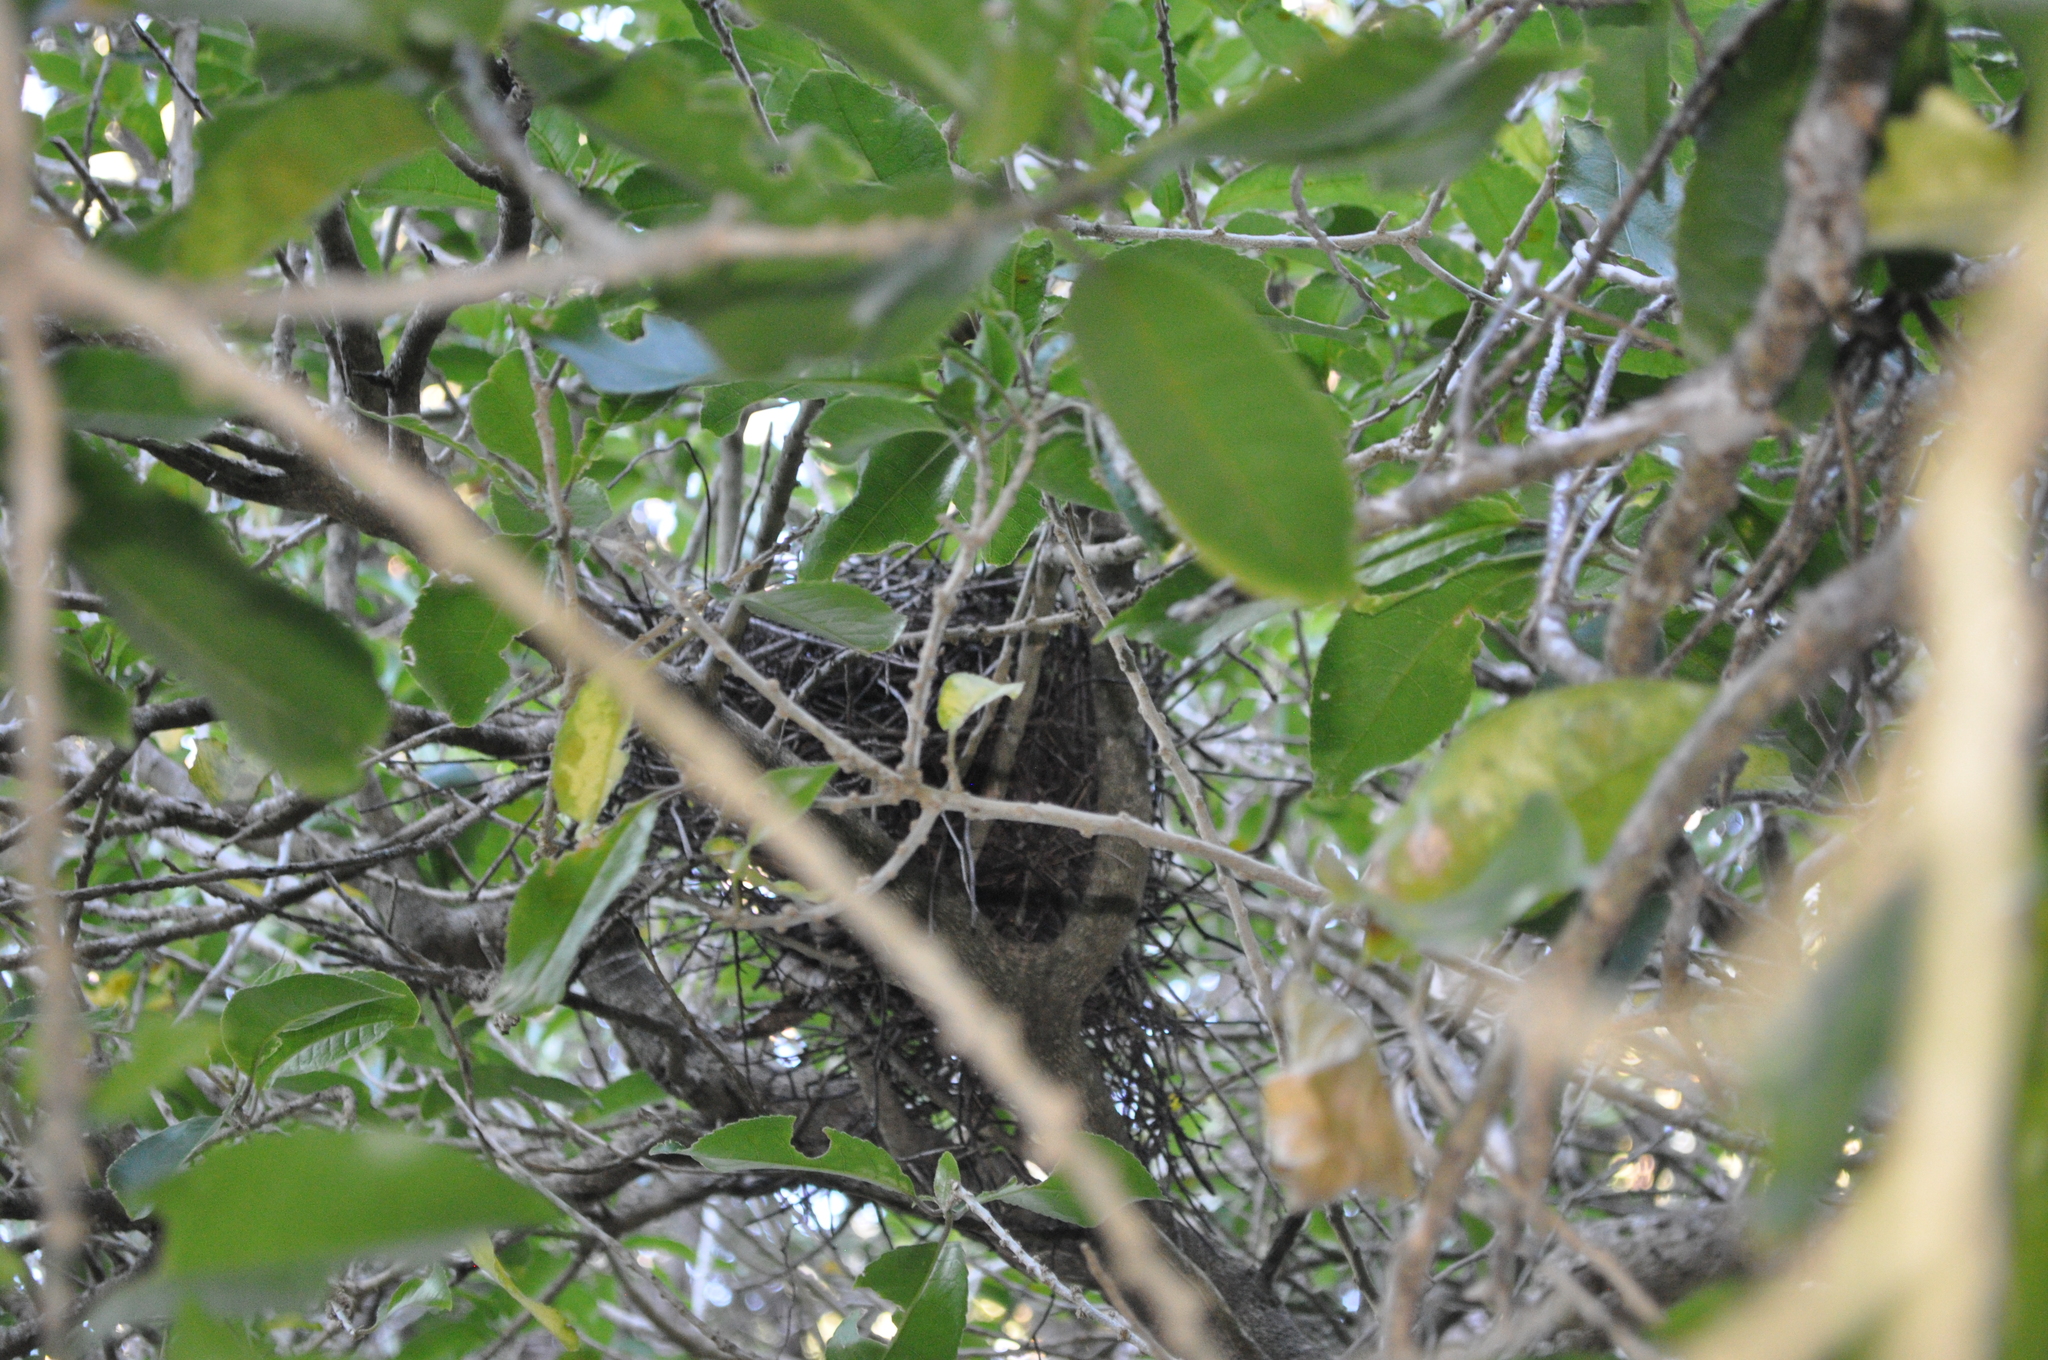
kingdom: Animalia
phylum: Chordata
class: Aves
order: Passeriformes
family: Turdidae
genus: Turdus
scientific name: Turdus merula
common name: Common blackbird
